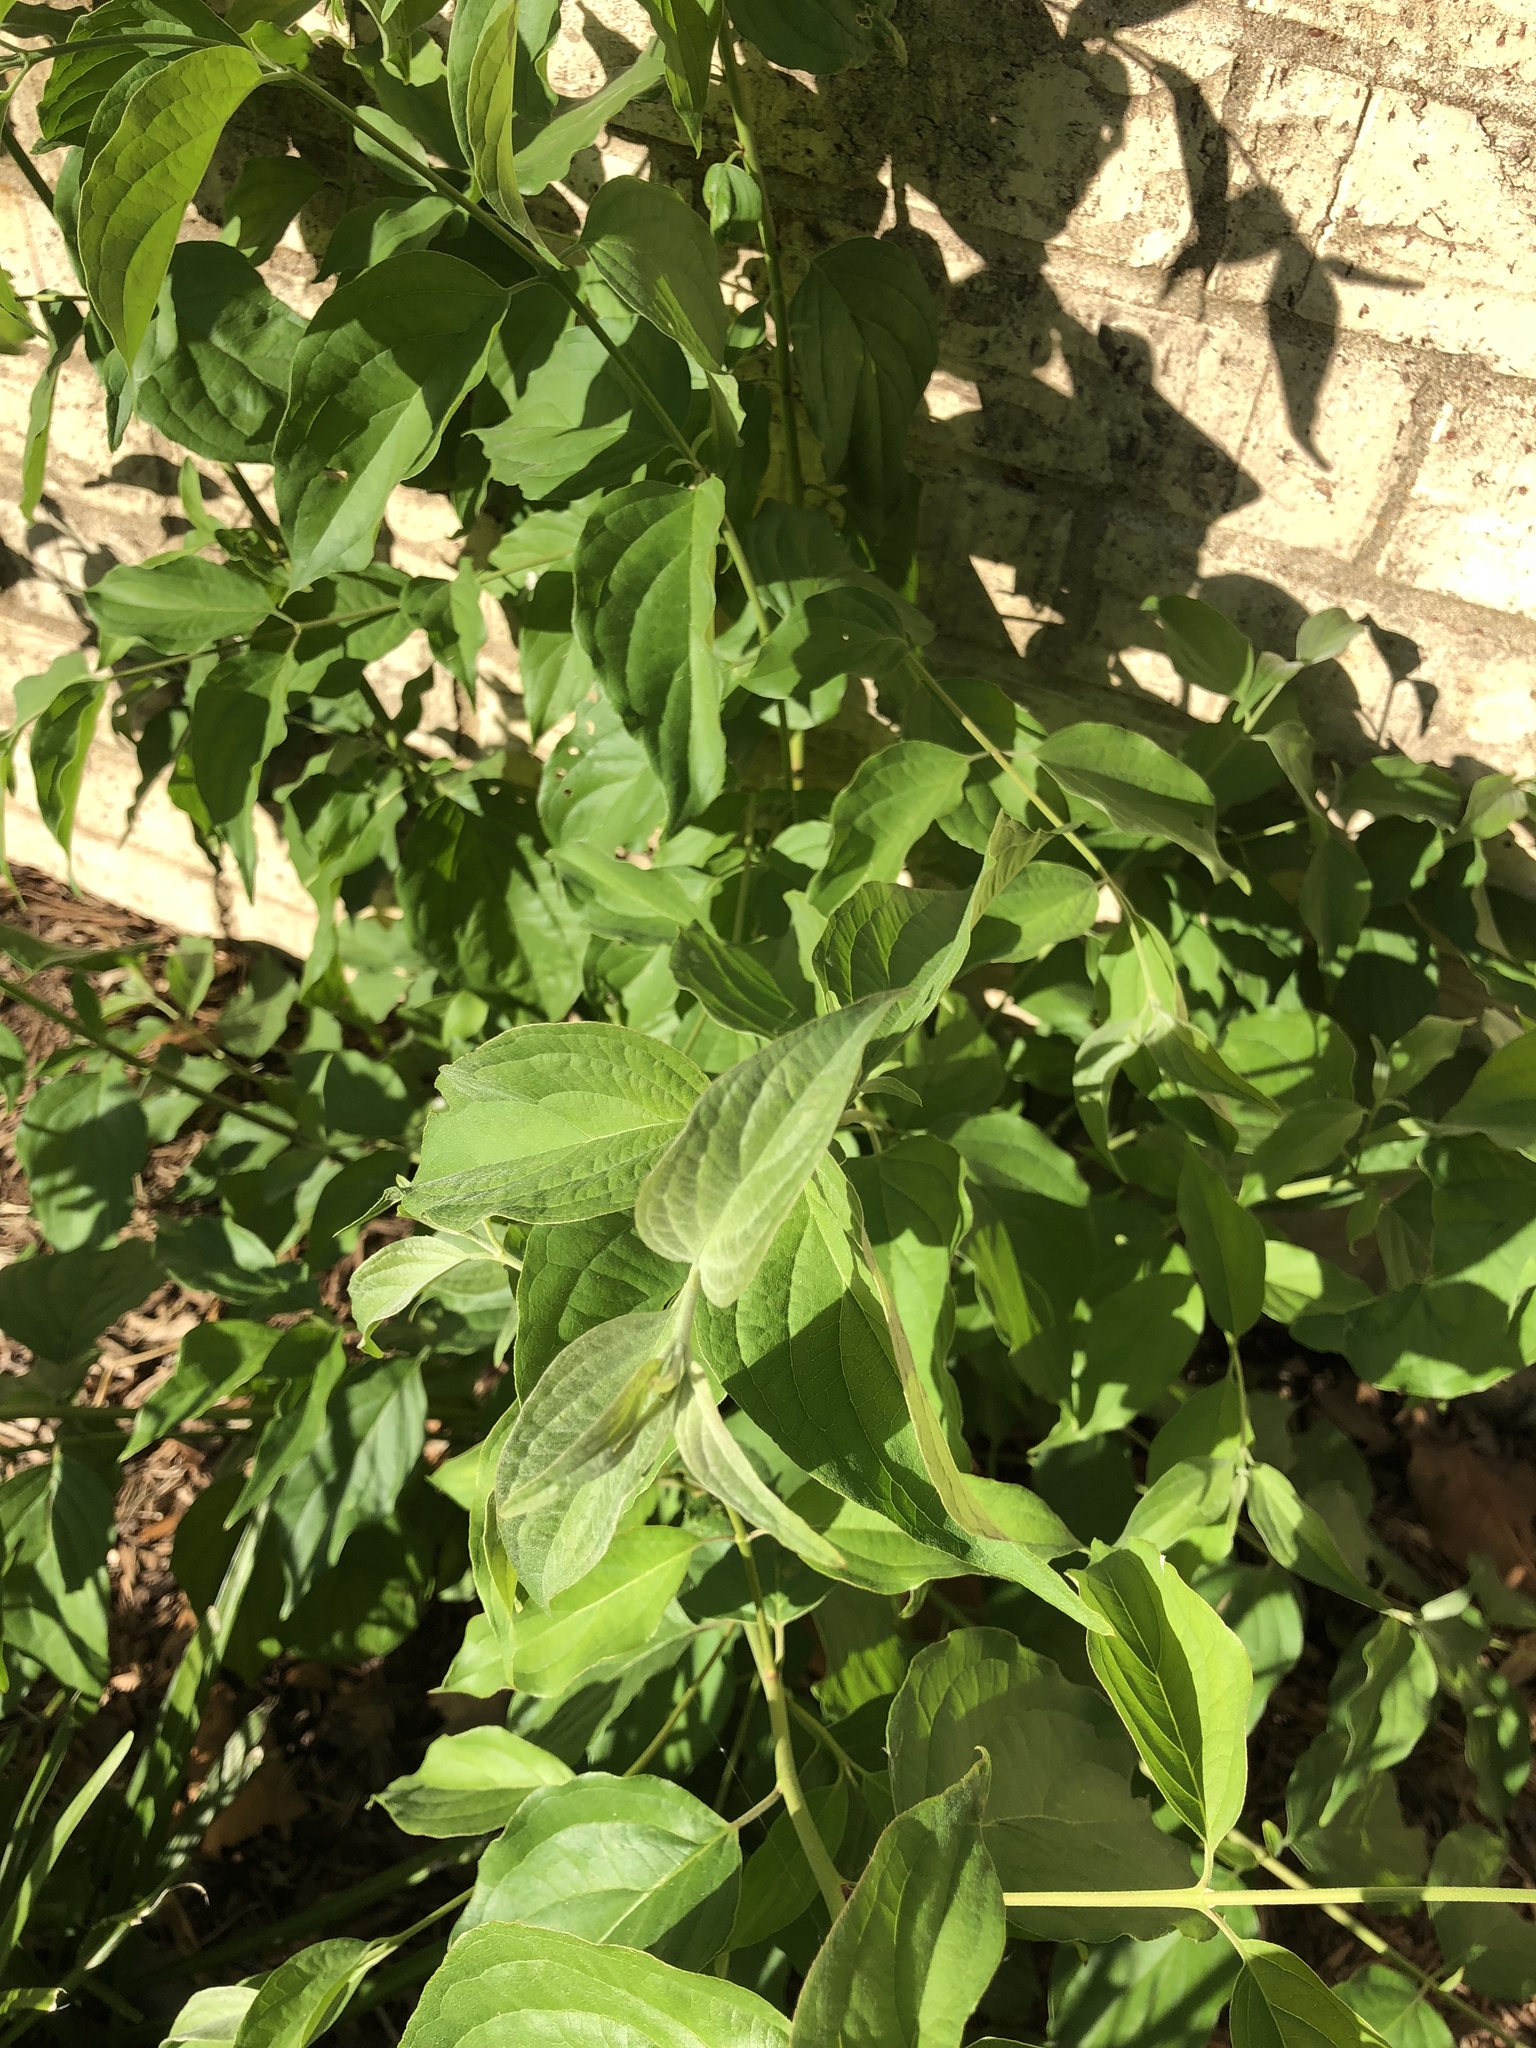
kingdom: Plantae
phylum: Tracheophyta
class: Magnoliopsida
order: Cornales
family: Cornaceae
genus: Cornus
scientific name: Cornus drummondii
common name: Rough-leaf dogwood
